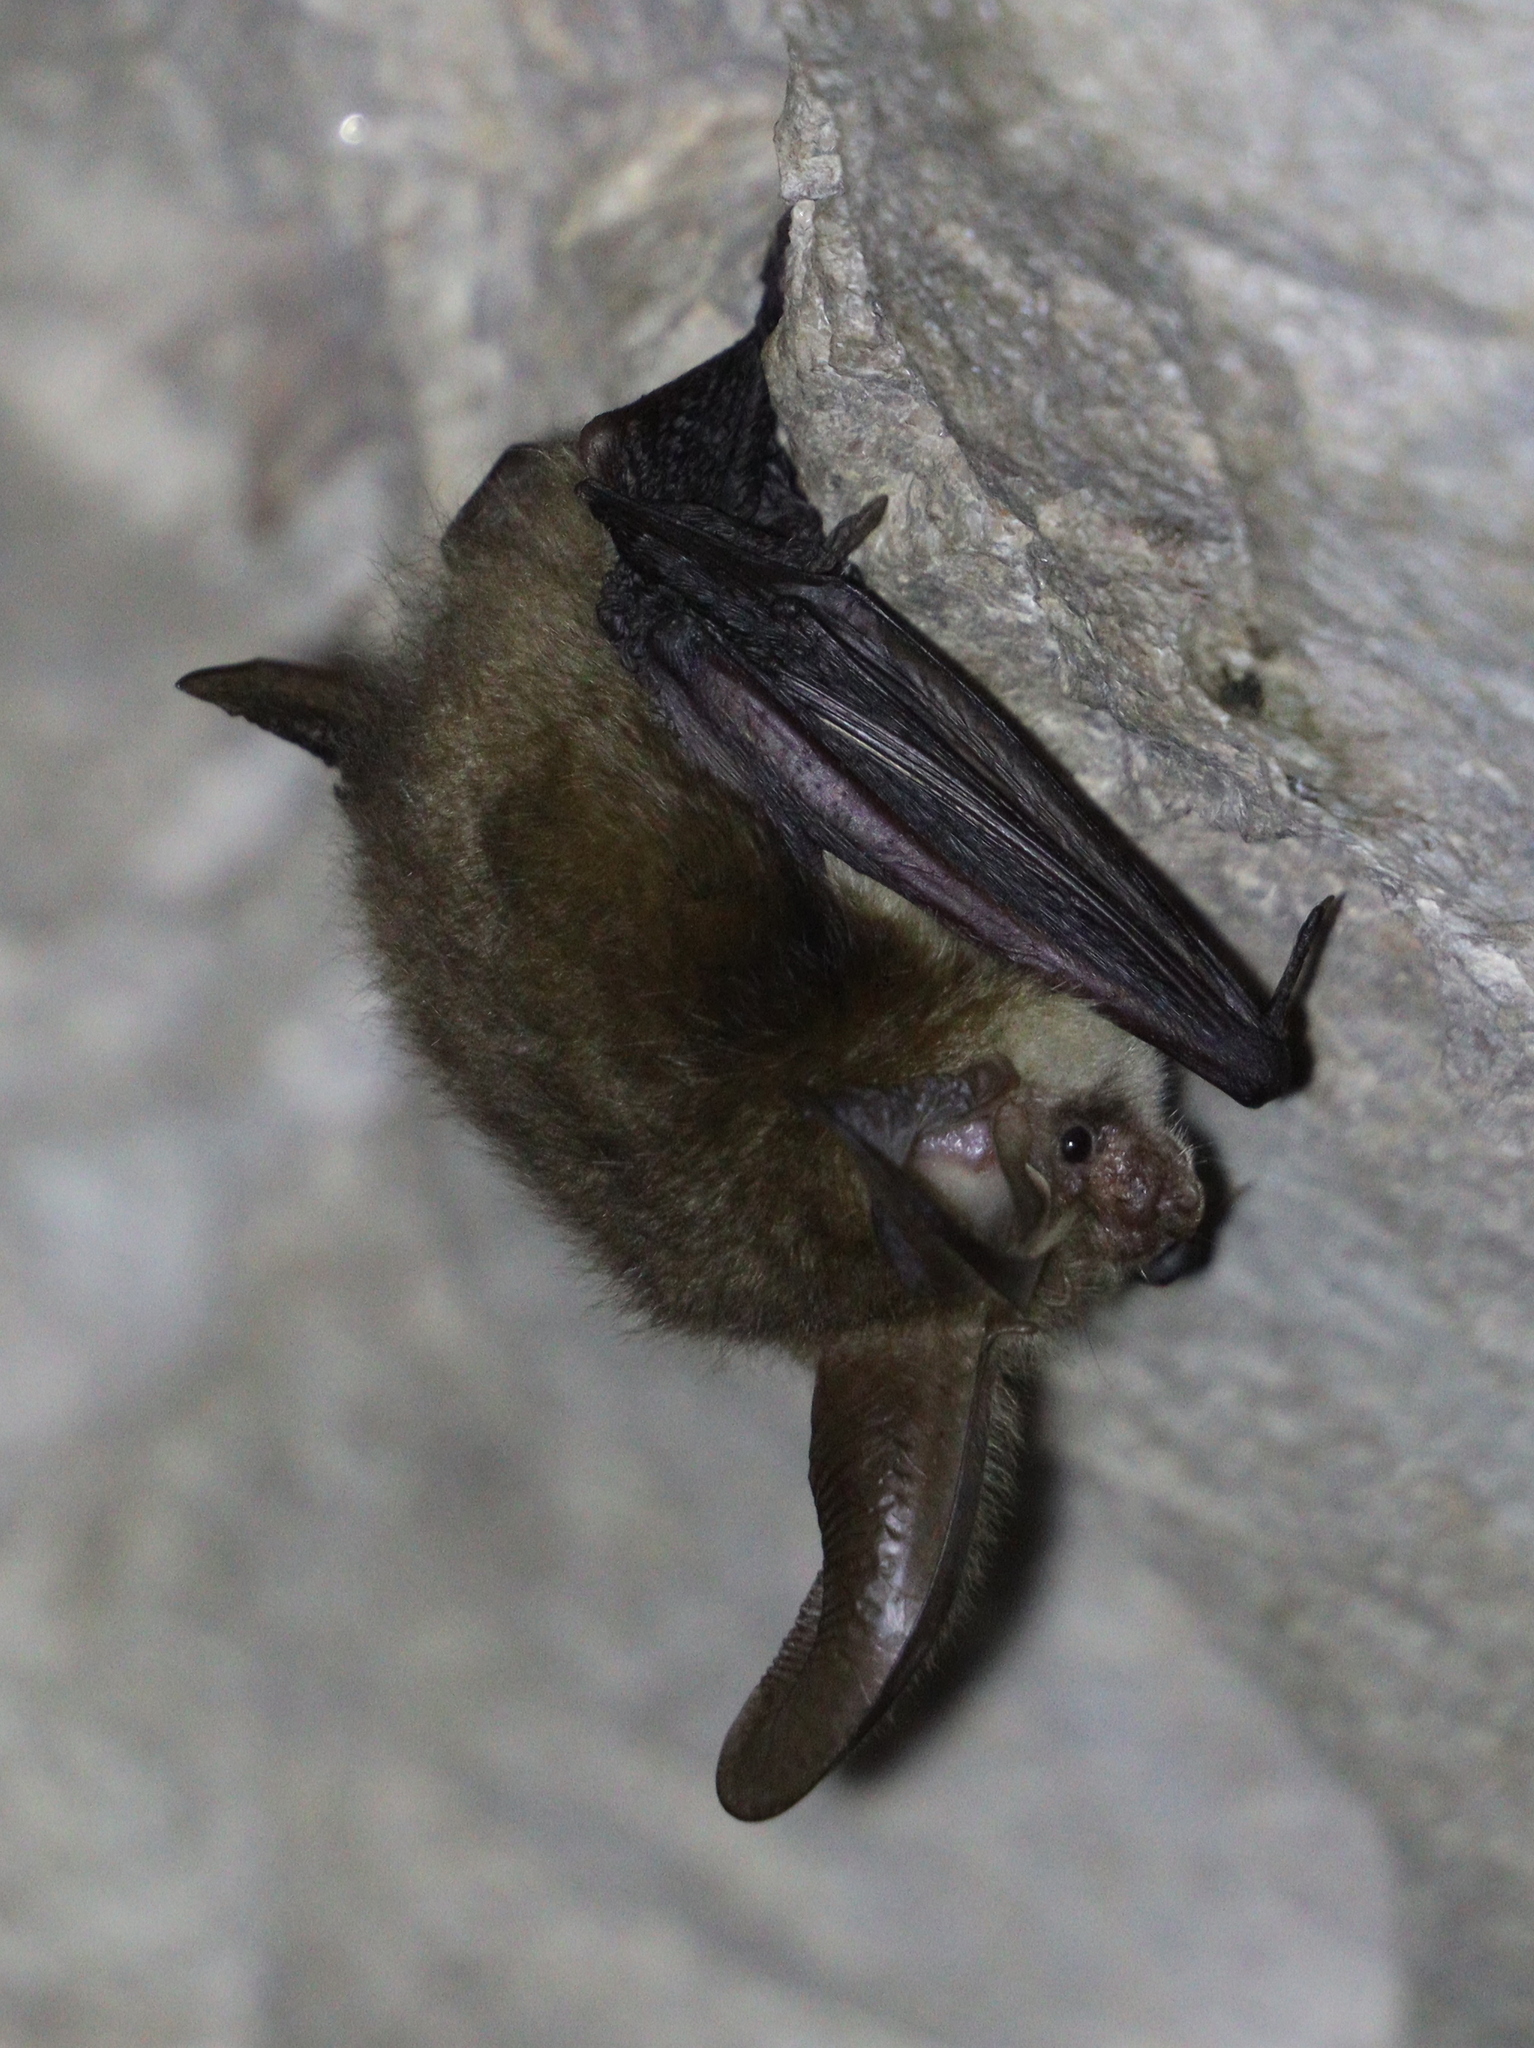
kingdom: Animalia
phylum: Chordata
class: Mammalia
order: Chiroptera
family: Vespertilionidae
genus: Plecotus
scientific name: Plecotus auritus
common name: Brown long-eared bat
